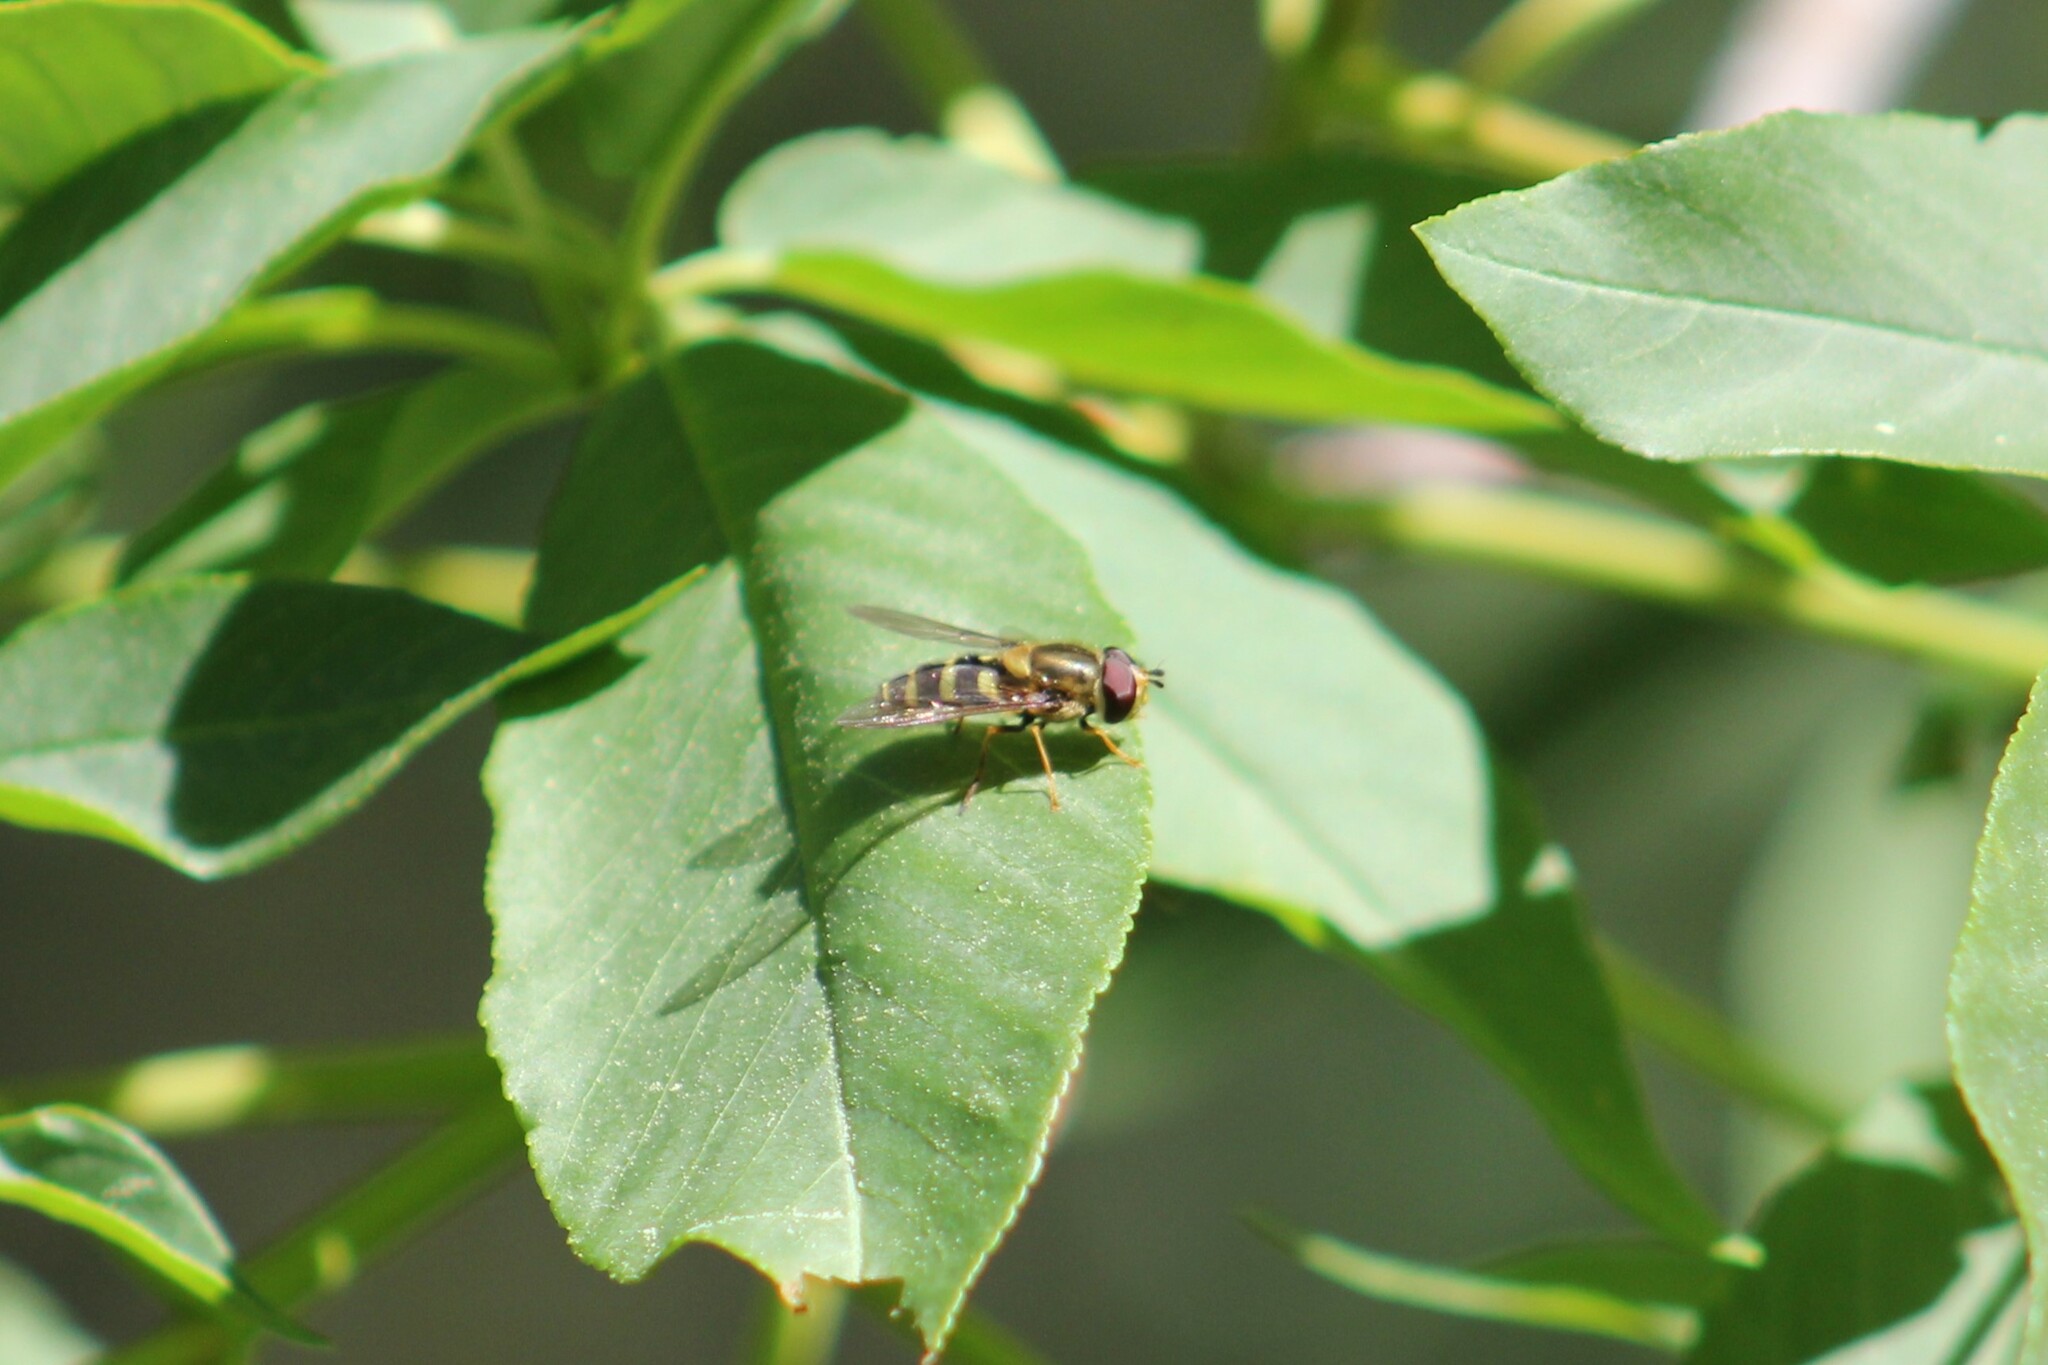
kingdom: Animalia
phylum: Arthropoda
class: Insecta
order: Diptera
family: Syrphidae
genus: Syrphus
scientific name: Syrphus opinator
